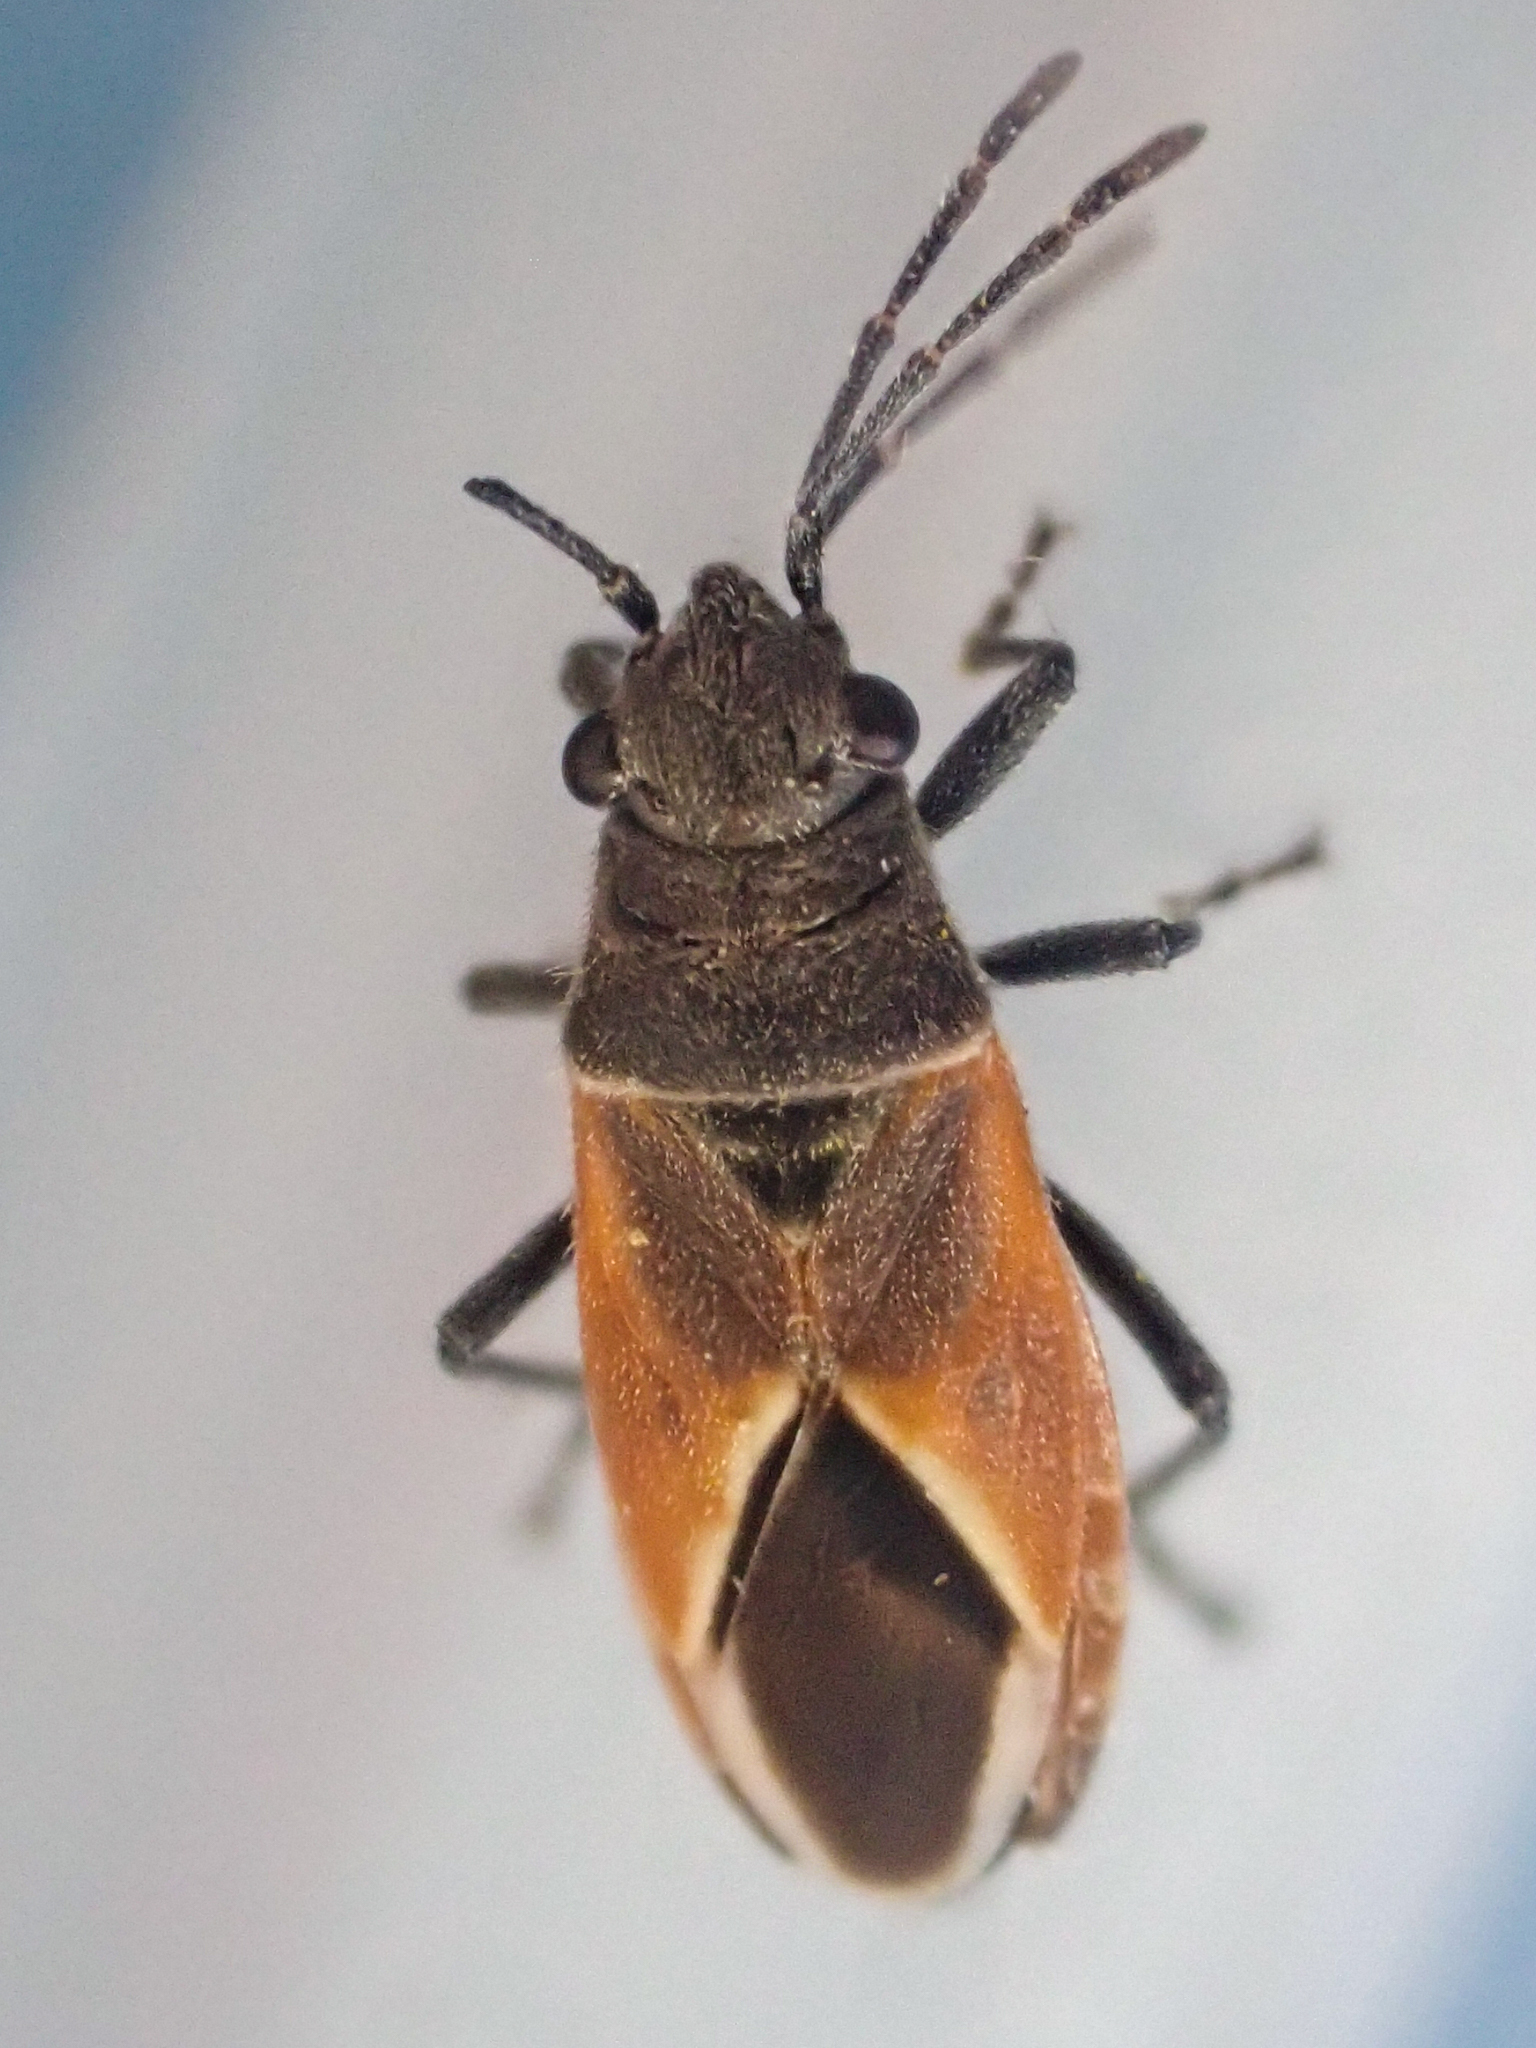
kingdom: Animalia
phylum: Arthropoda
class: Insecta
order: Hemiptera
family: Lygaeidae
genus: Melanopleurus
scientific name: Melanopleurus pyrrhopterus
